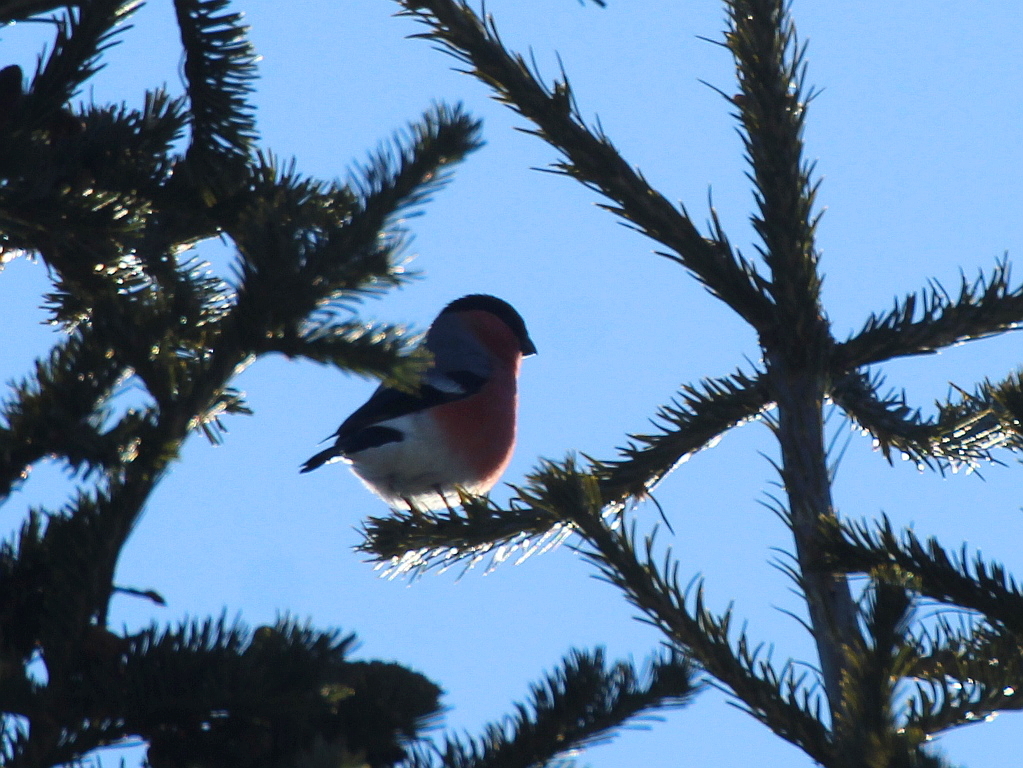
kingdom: Animalia
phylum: Chordata
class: Aves
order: Passeriformes
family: Fringillidae
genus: Pyrrhula
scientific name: Pyrrhula pyrrhula
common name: Eurasian bullfinch
